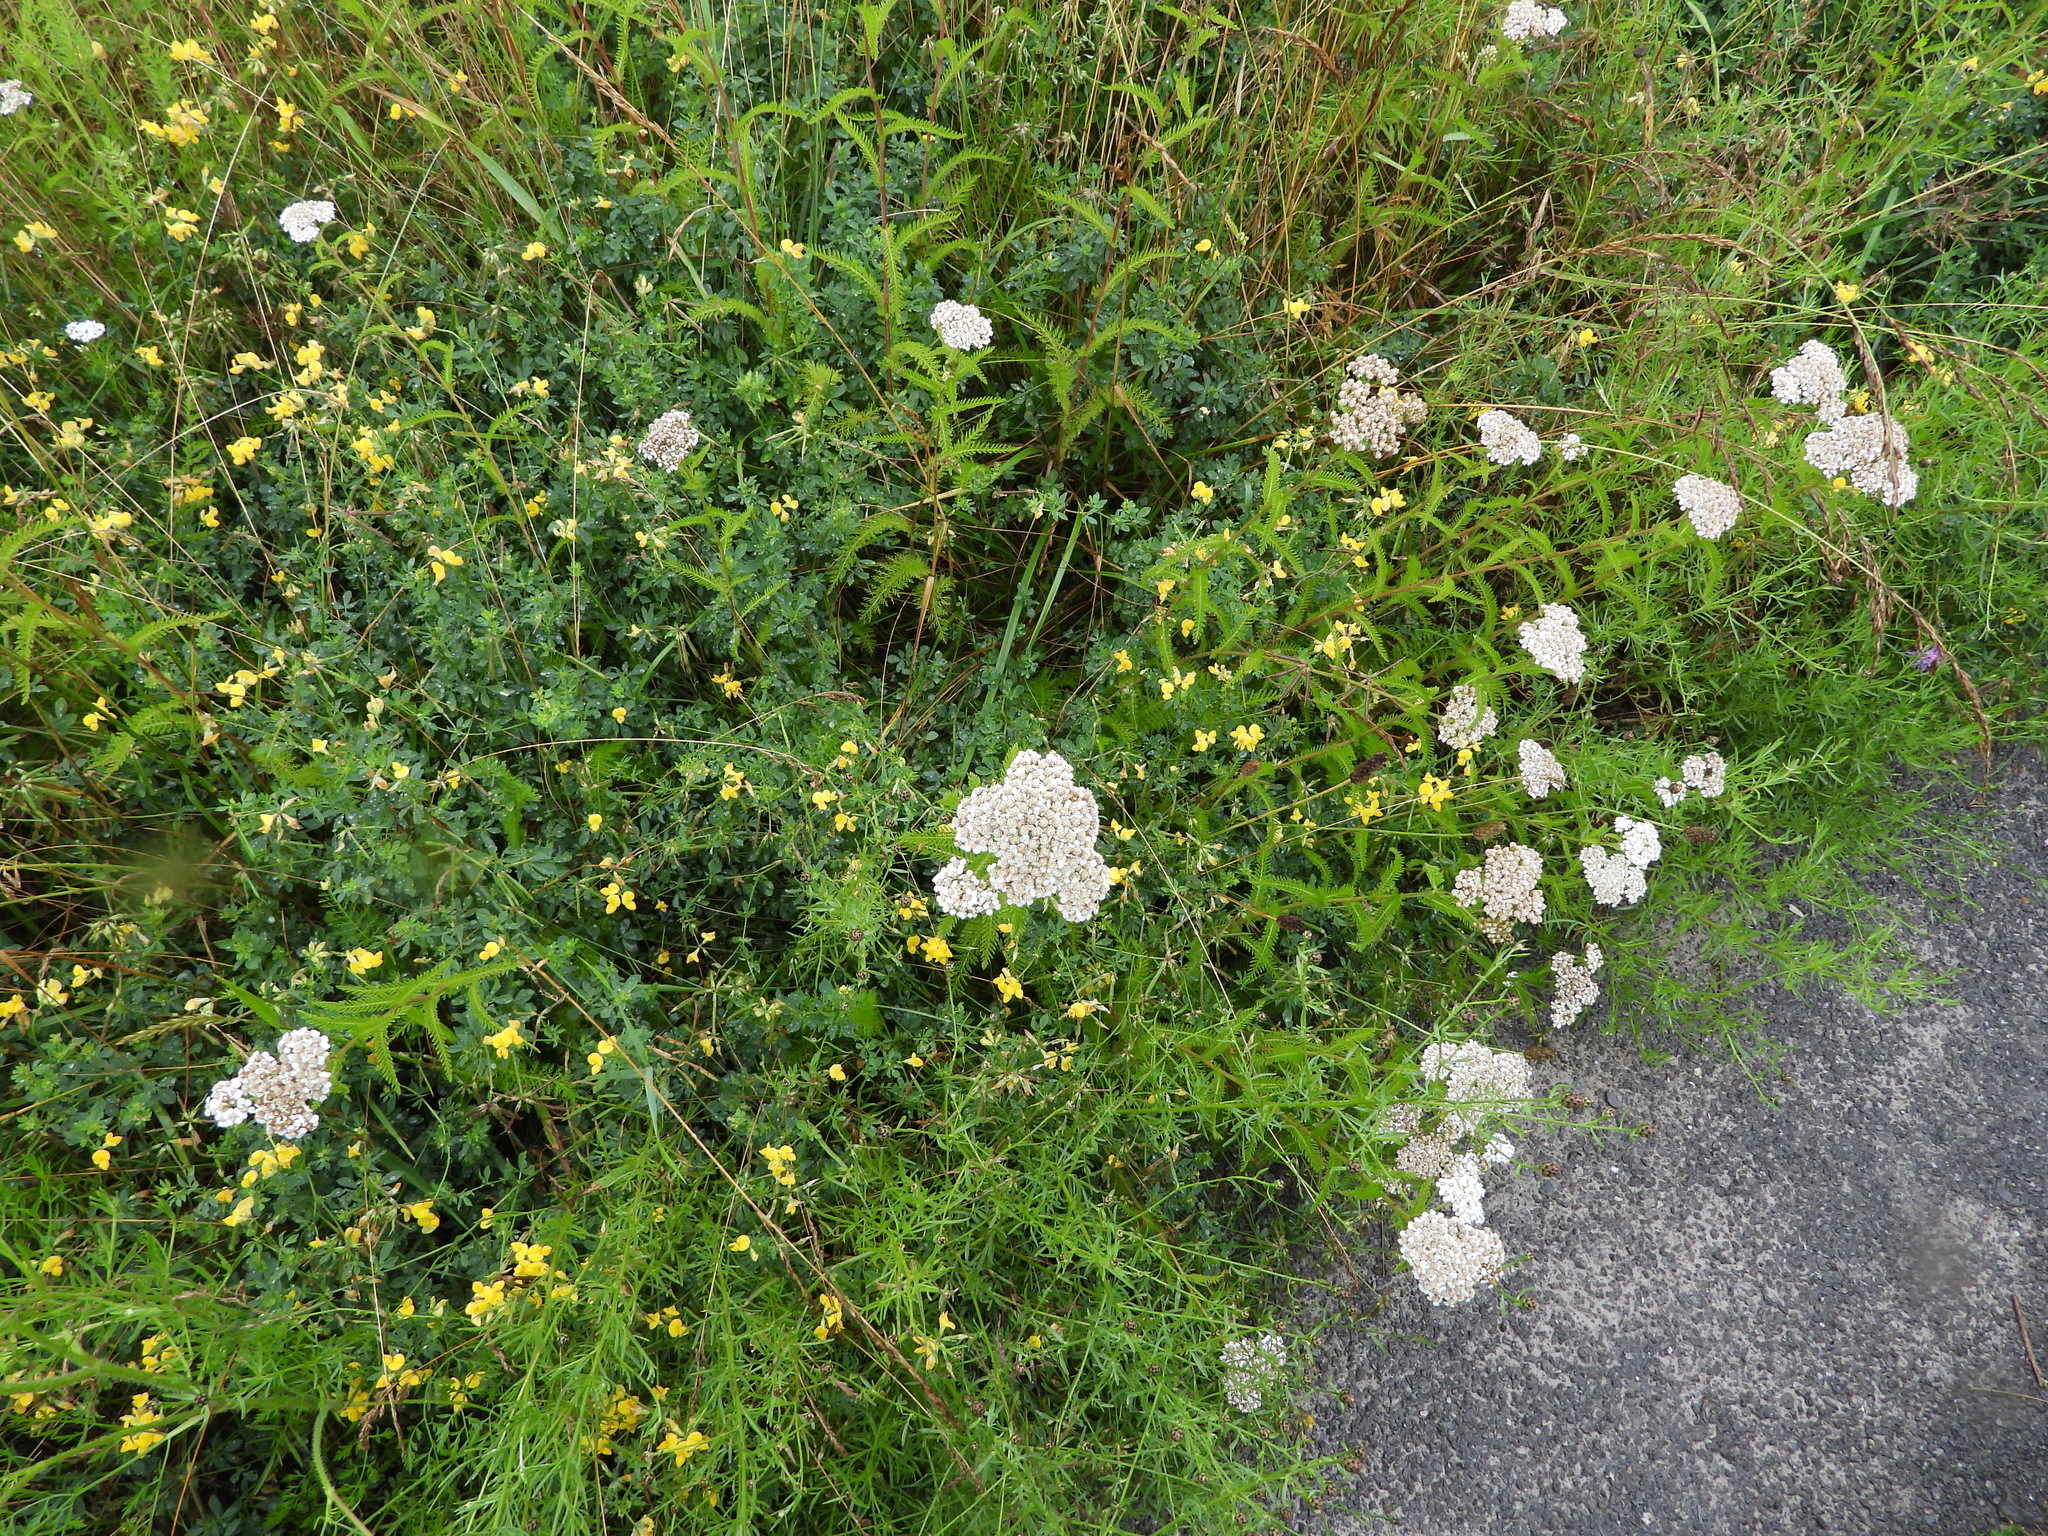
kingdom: Plantae
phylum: Tracheophyta
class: Magnoliopsida
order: Asterales
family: Asteraceae
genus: Achillea
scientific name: Achillea millefolium
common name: Yarrow
